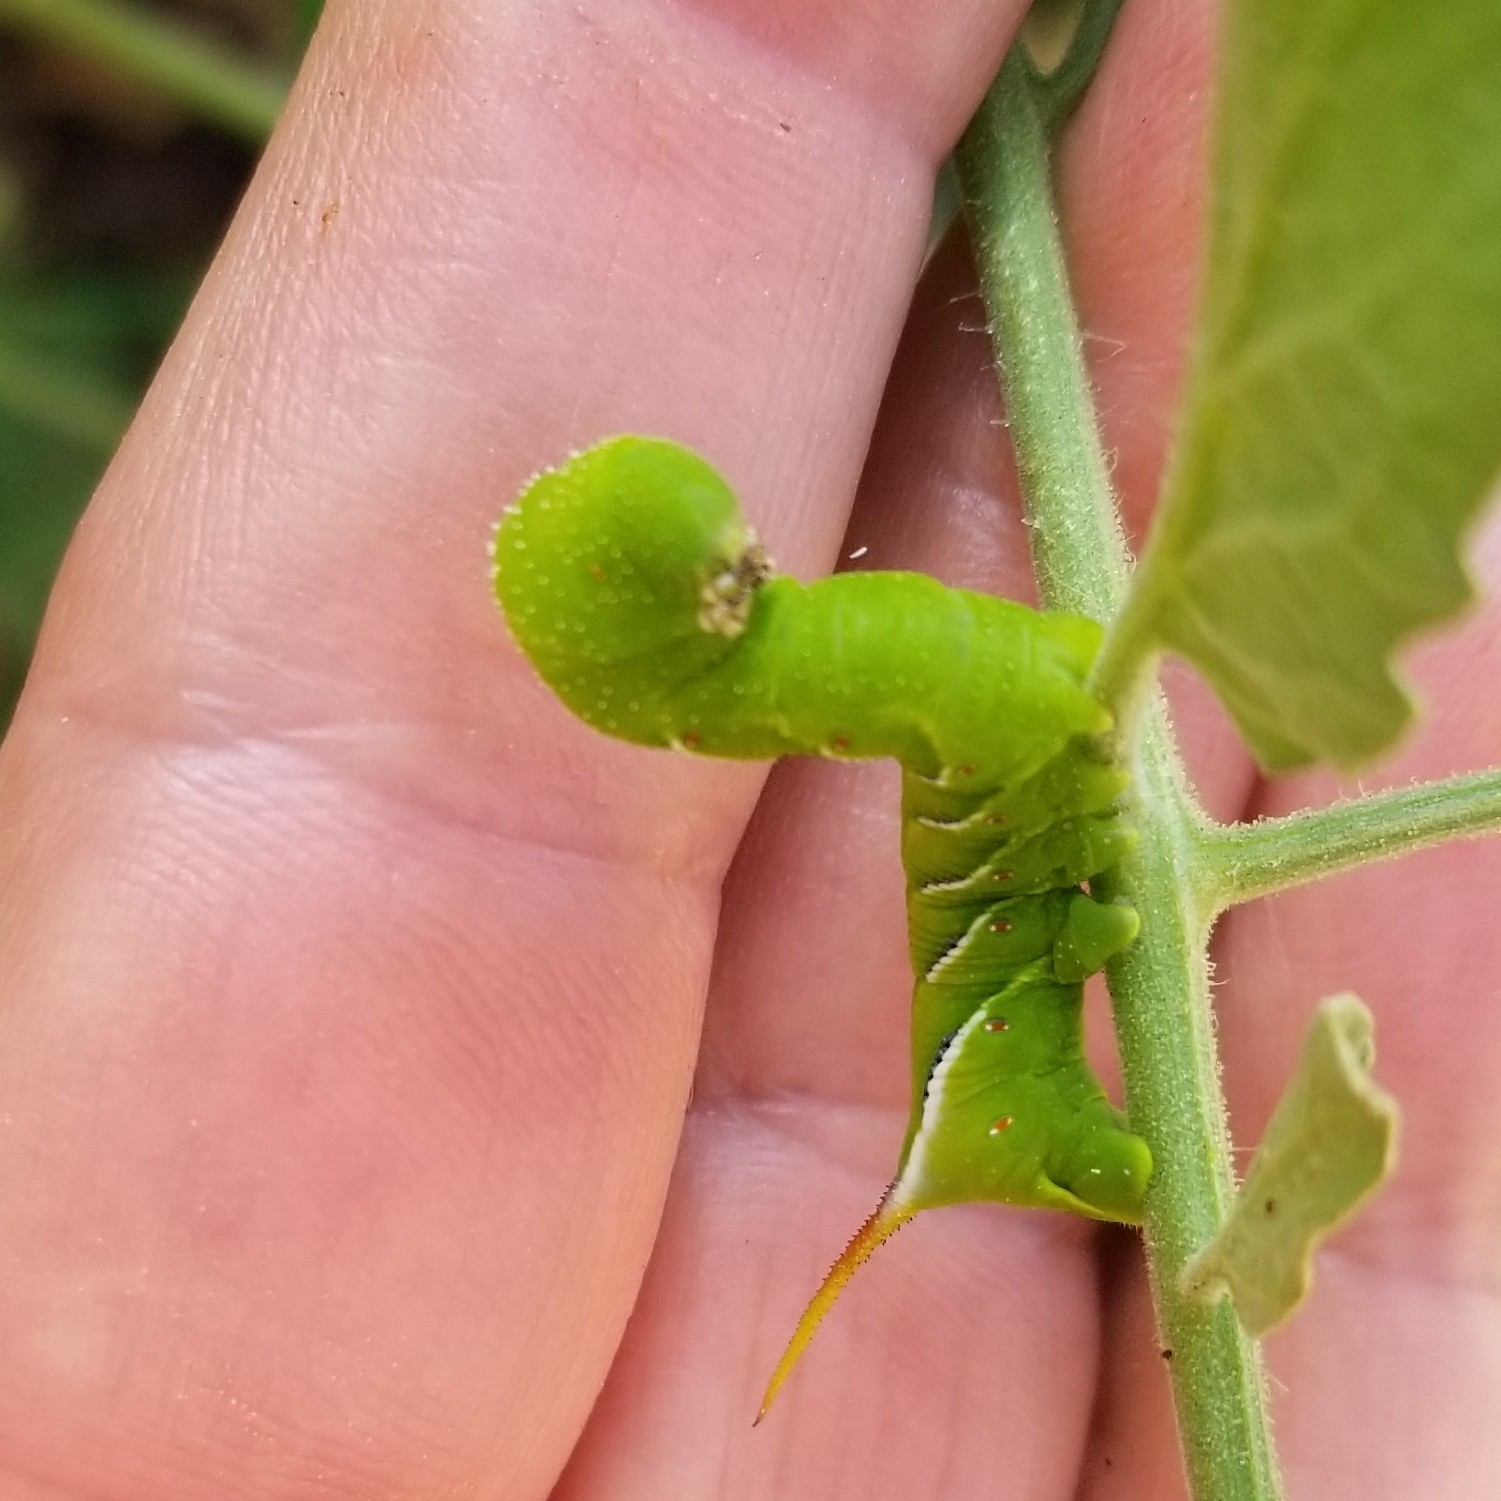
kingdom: Animalia
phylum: Arthropoda
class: Insecta
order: Lepidoptera
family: Sphingidae
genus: Manduca
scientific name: Manduca sexta
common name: Carolina sphinx
